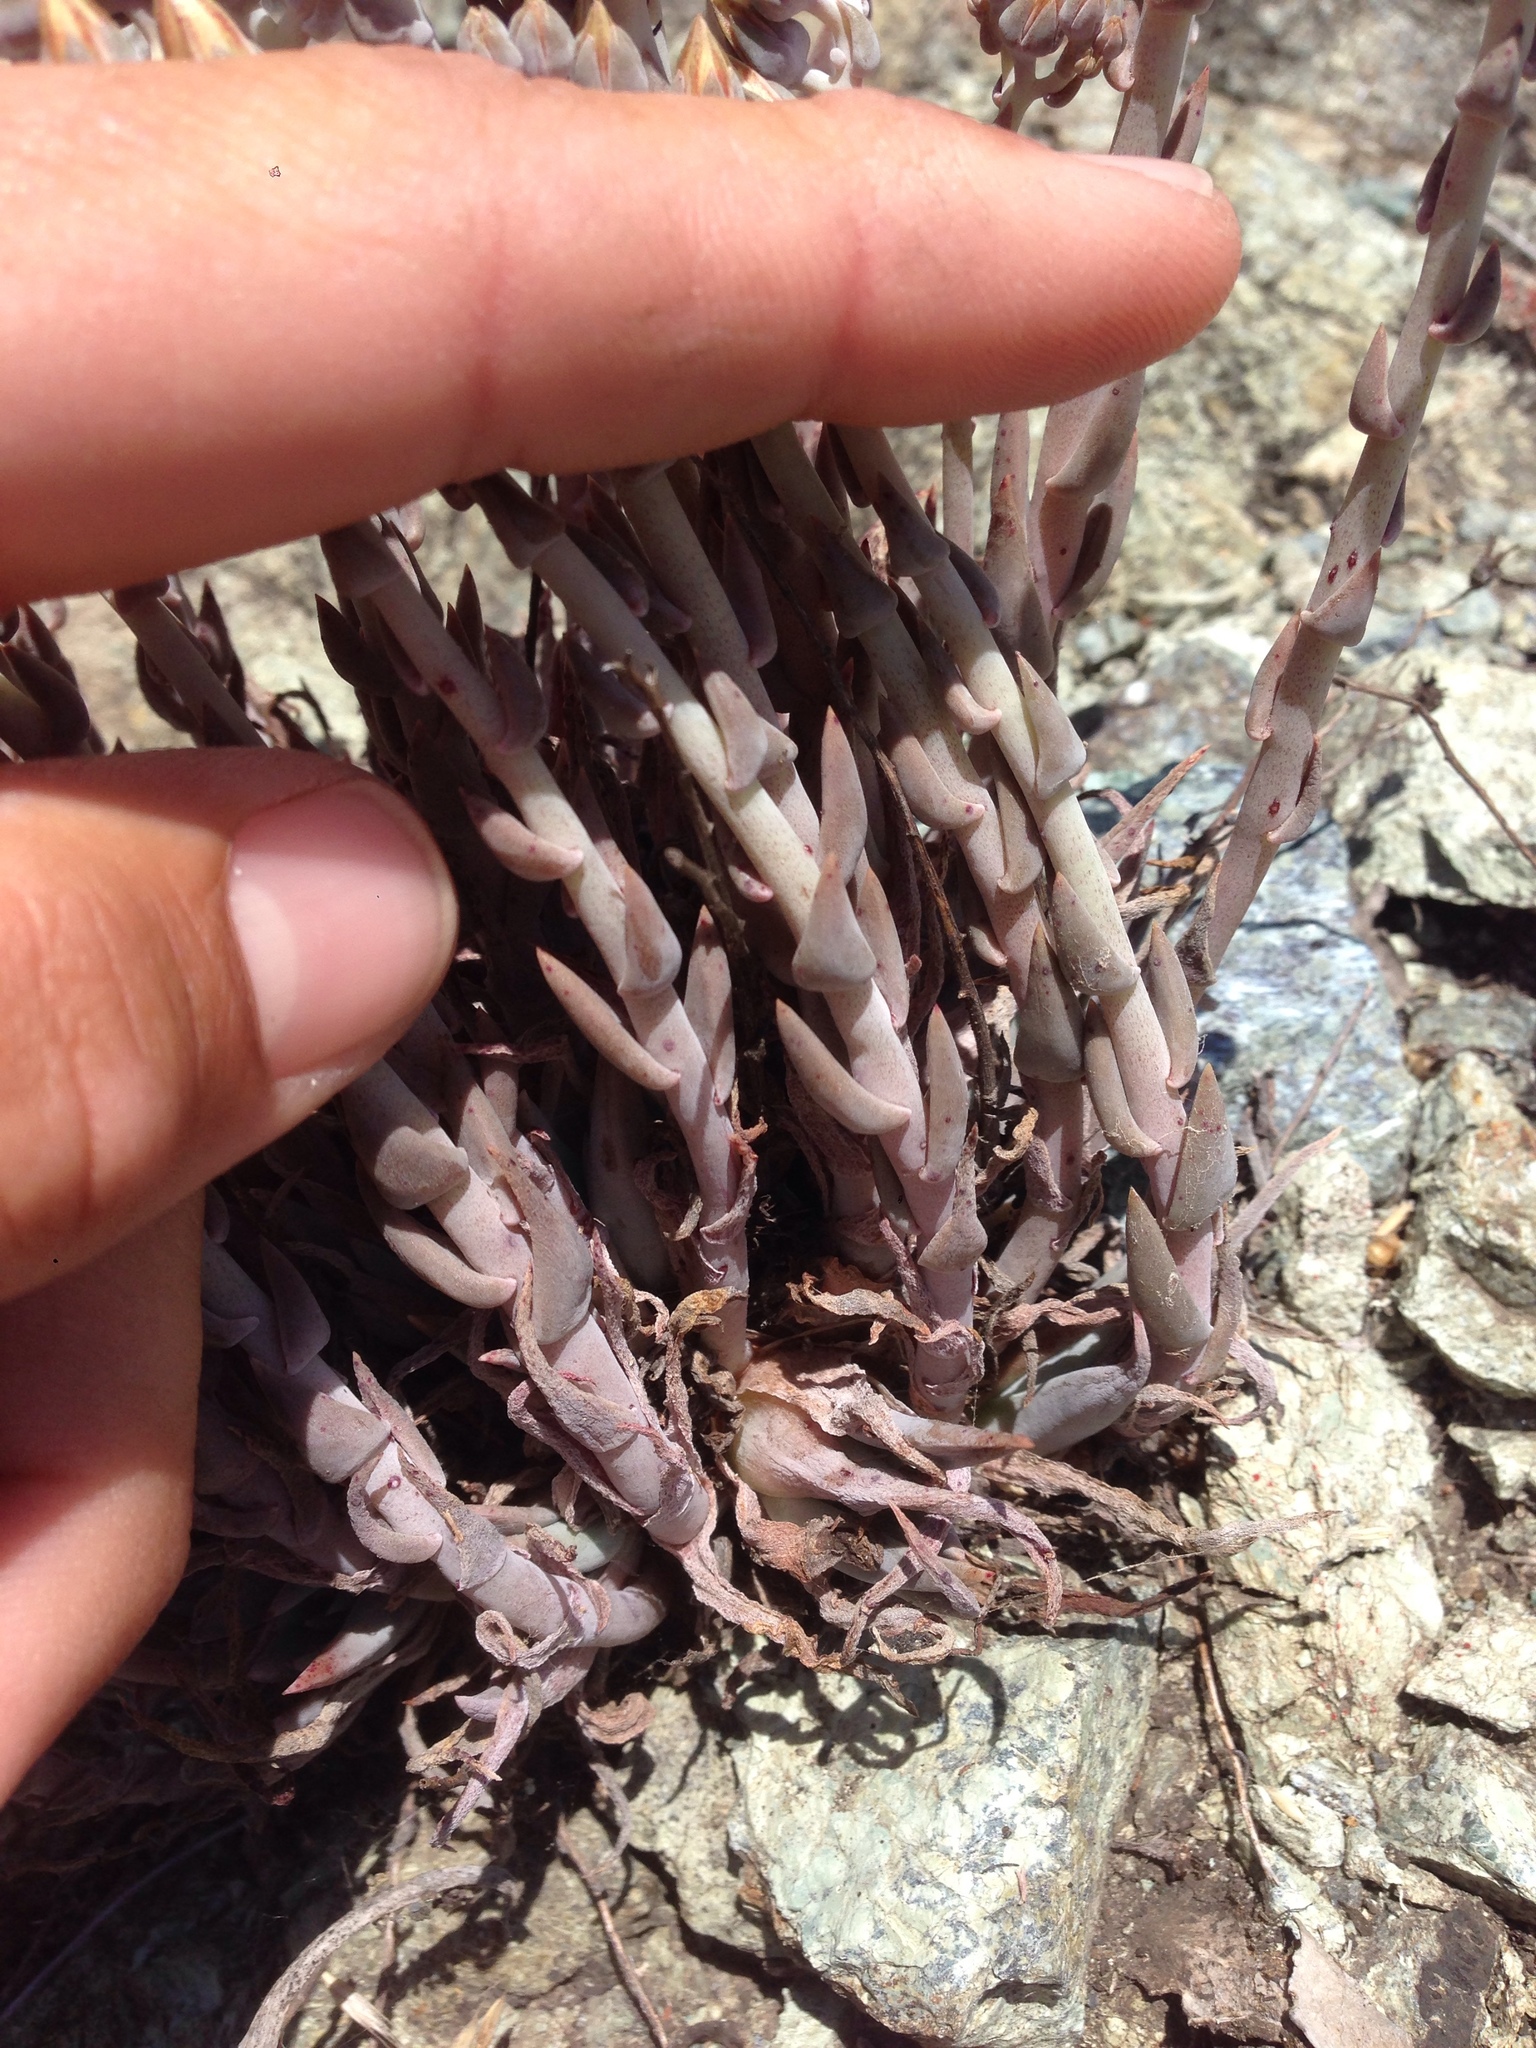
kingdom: Plantae
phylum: Tracheophyta
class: Magnoliopsida
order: Saxifragales
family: Crassulaceae
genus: Dudleya
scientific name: Dudleya abramsii
